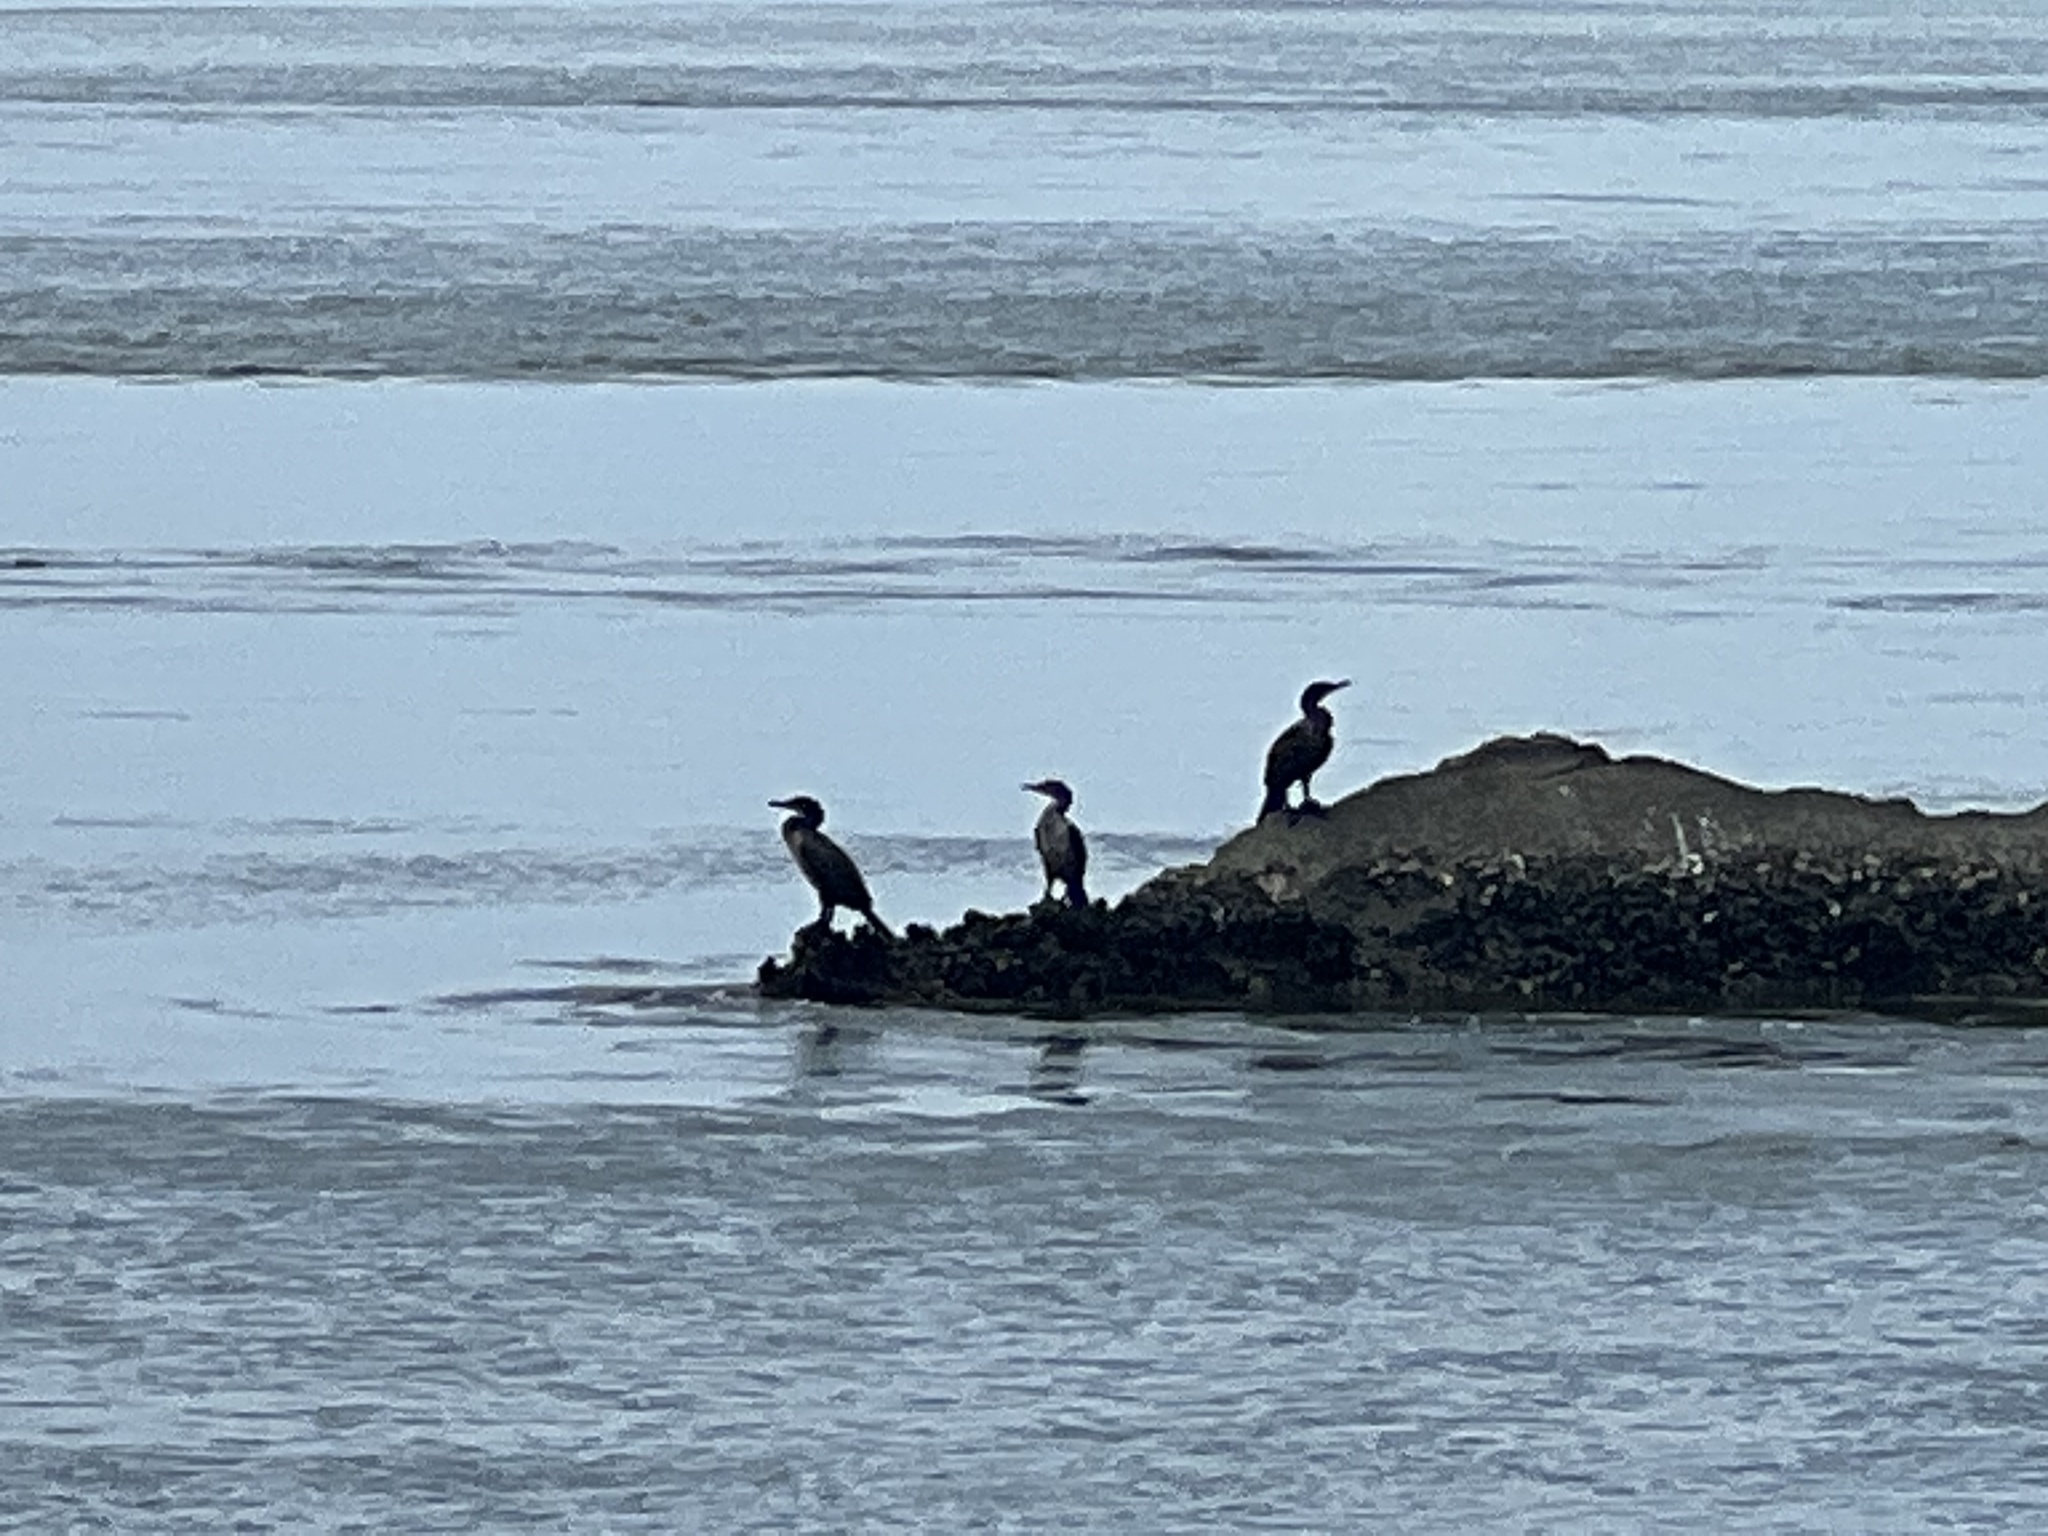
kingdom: Animalia
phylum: Chordata
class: Aves
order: Suliformes
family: Phalacrocoracidae
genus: Phalacrocorax
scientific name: Phalacrocorax auritus
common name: Double-crested cormorant
